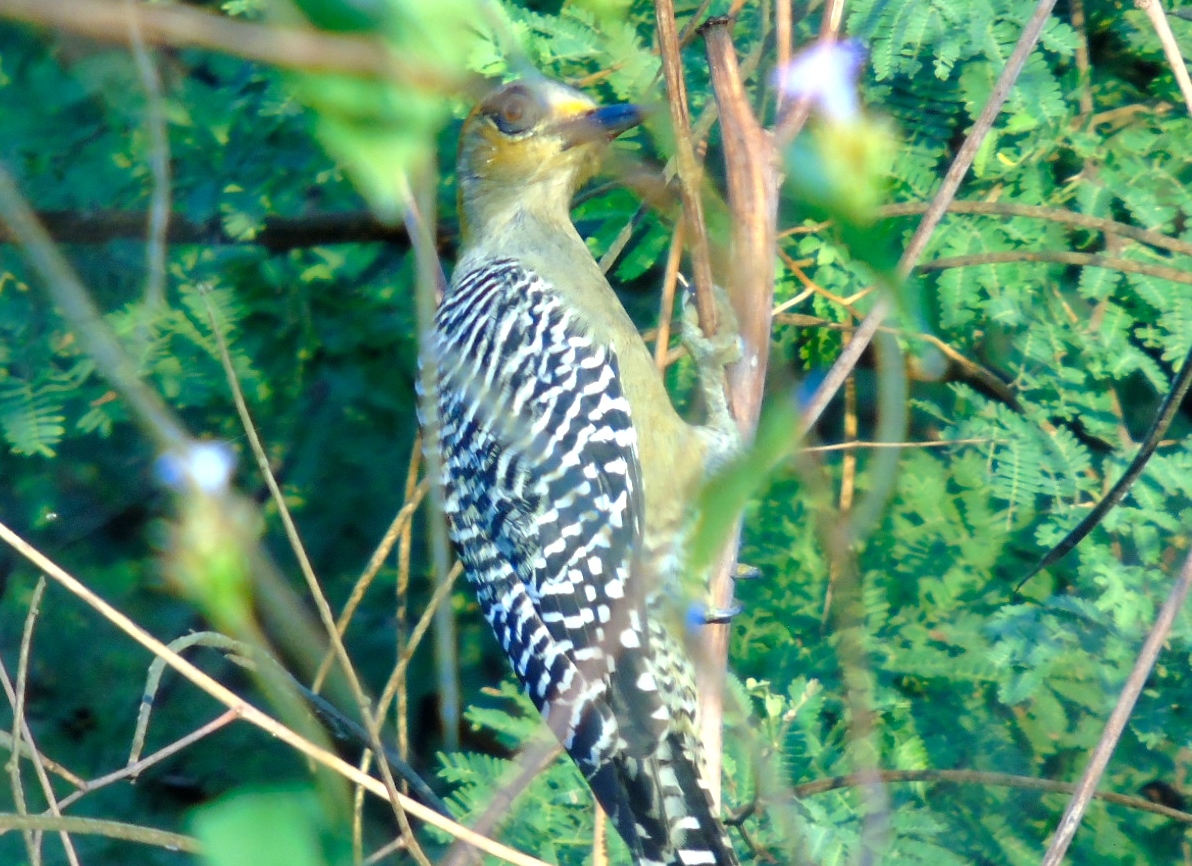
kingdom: Animalia
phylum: Chordata
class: Aves
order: Piciformes
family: Picidae
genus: Melanerpes
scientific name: Melanerpes chrysogenys
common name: Golden-cheeked woodpecker
